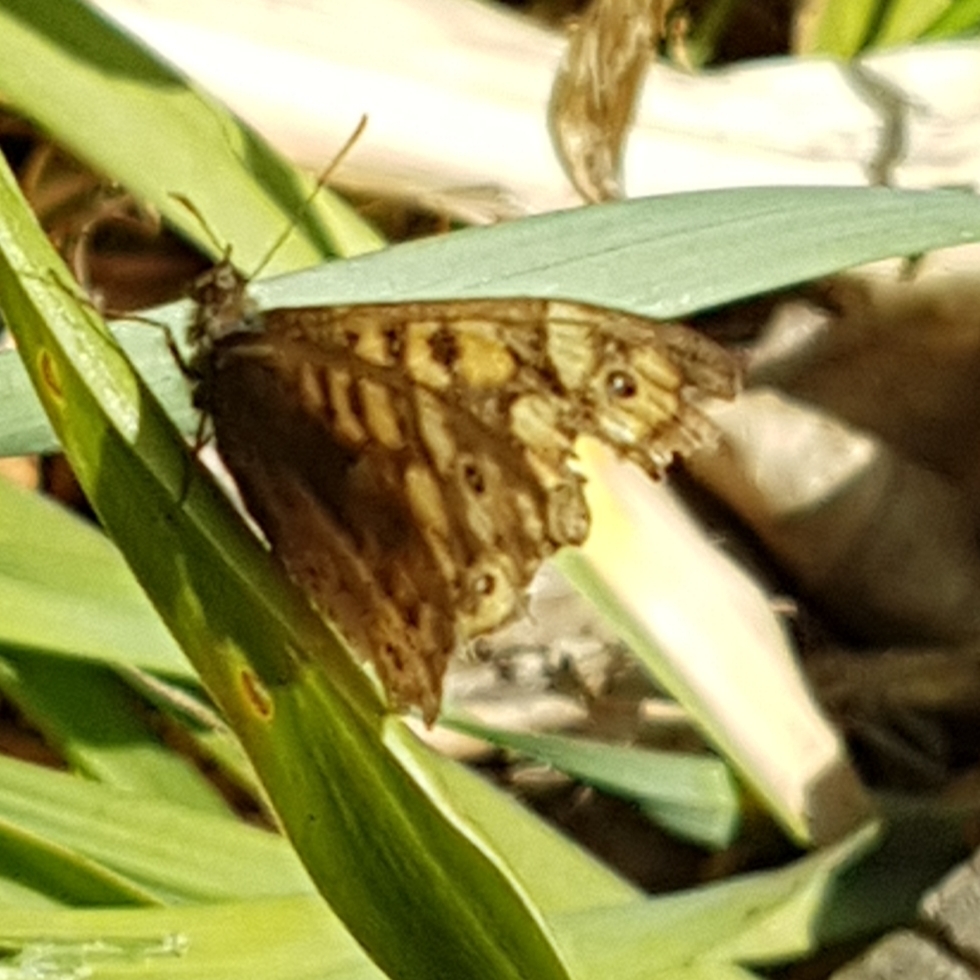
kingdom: Animalia
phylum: Arthropoda
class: Insecta
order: Lepidoptera
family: Nymphalidae
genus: Pararge
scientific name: Pararge aegeria
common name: Speckled wood
